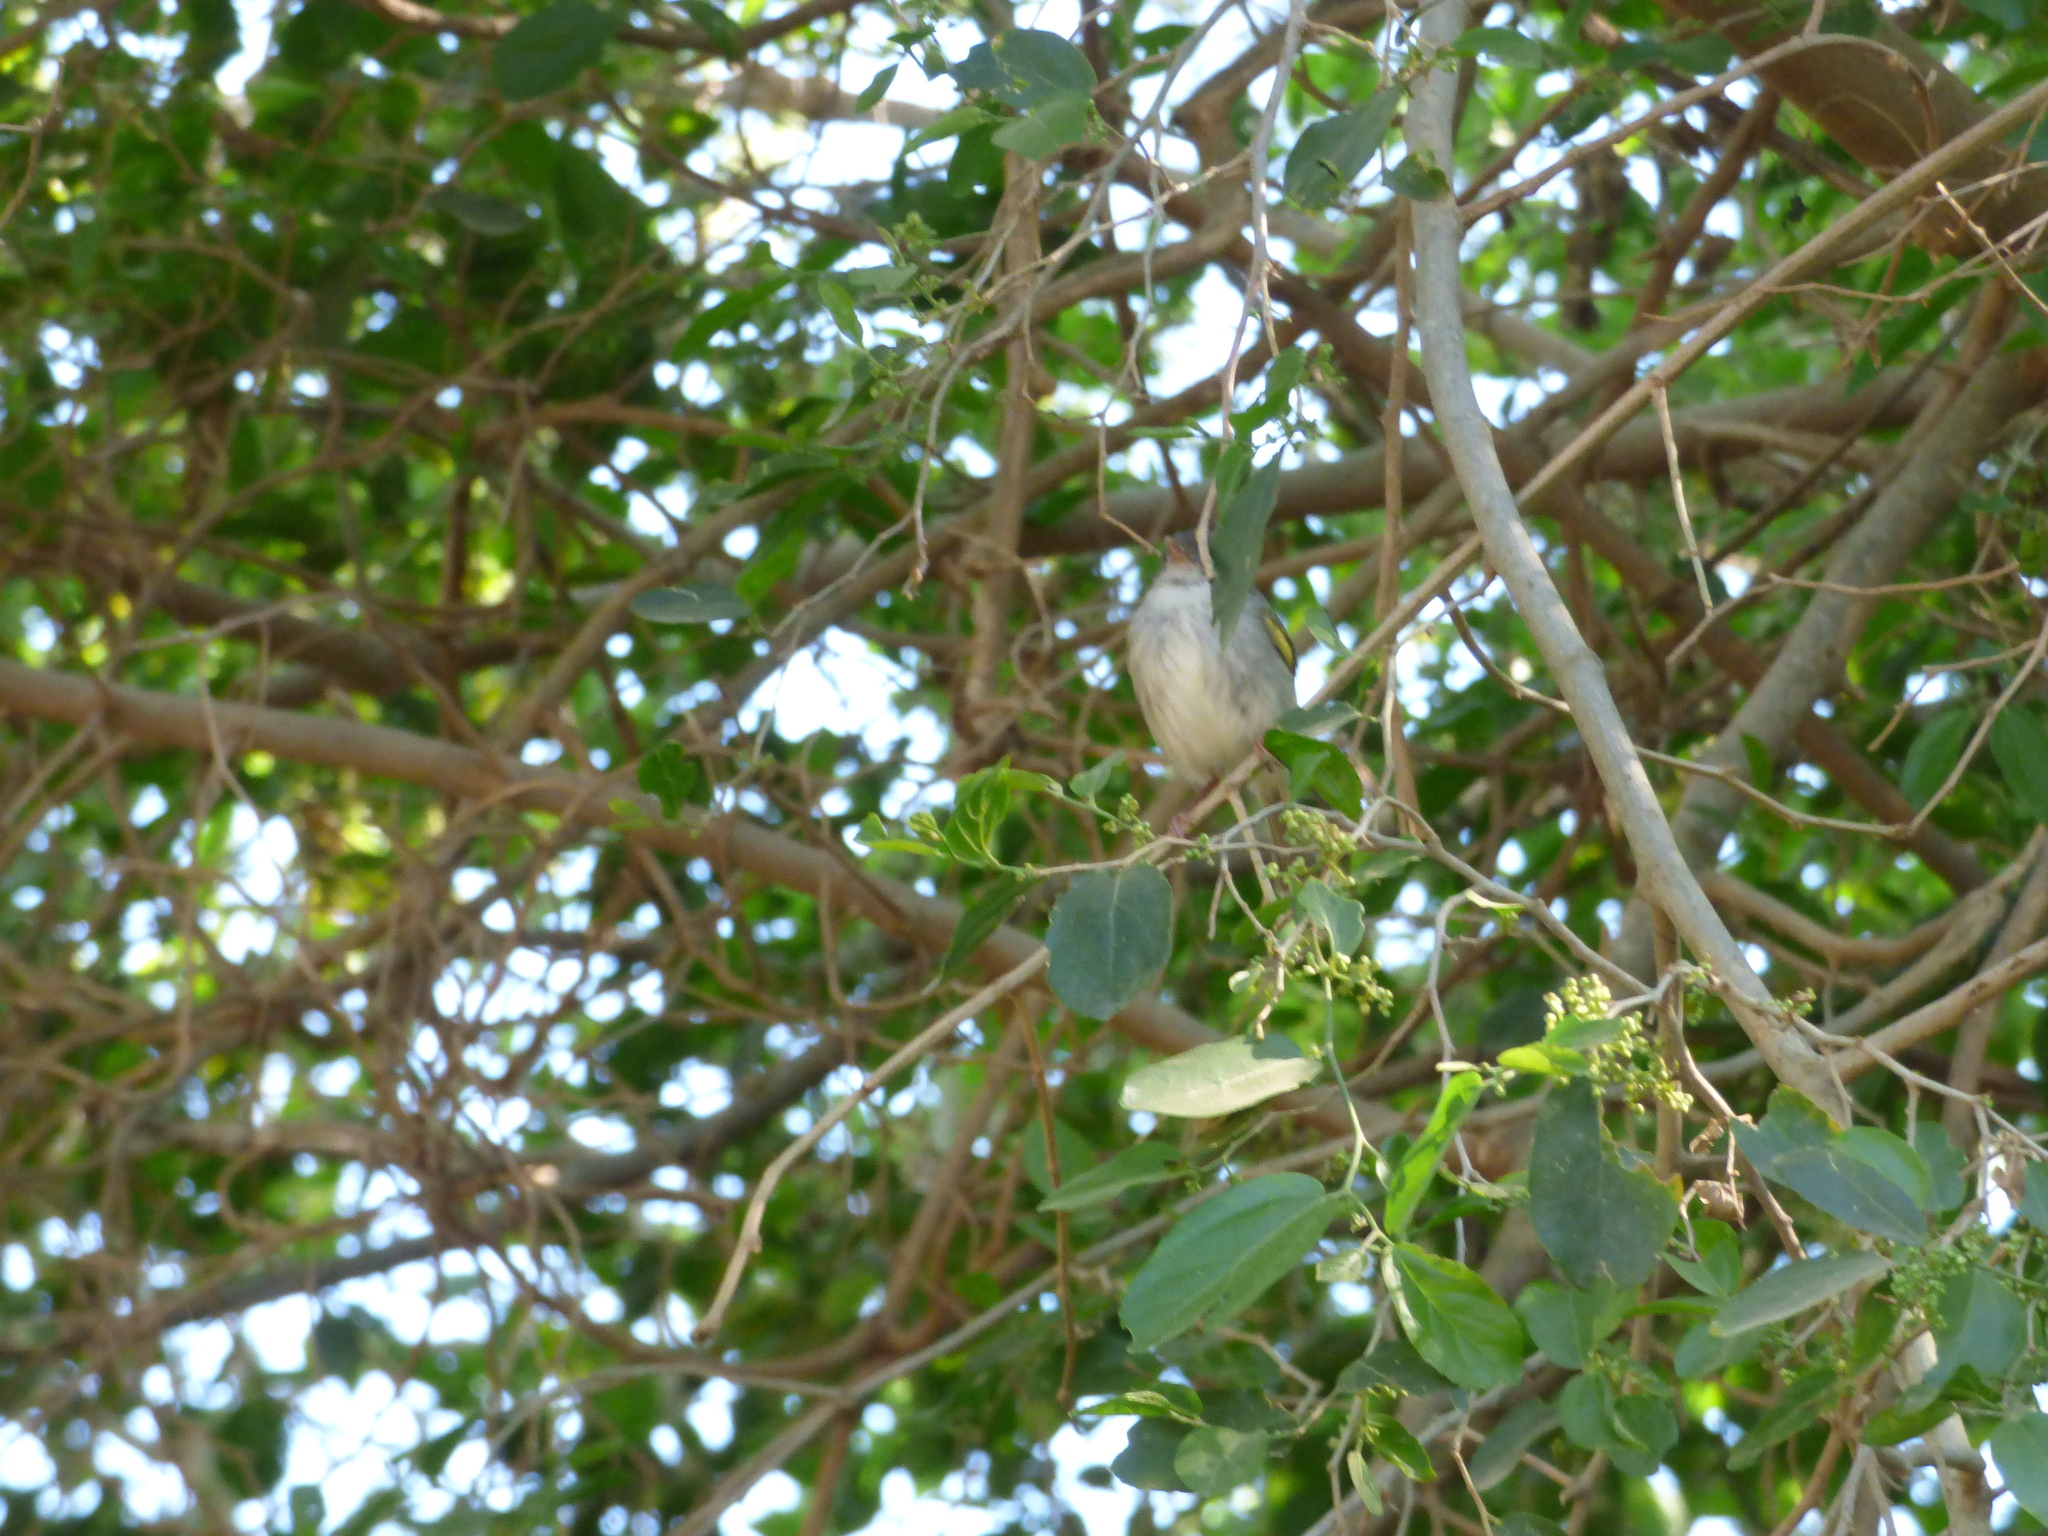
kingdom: Animalia
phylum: Chordata
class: Aves
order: Passeriformes
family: Tyrannidae
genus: Hemitriccus
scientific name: Hemitriccus margaritaceiventer
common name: Pearly-vented tody-tyrant
